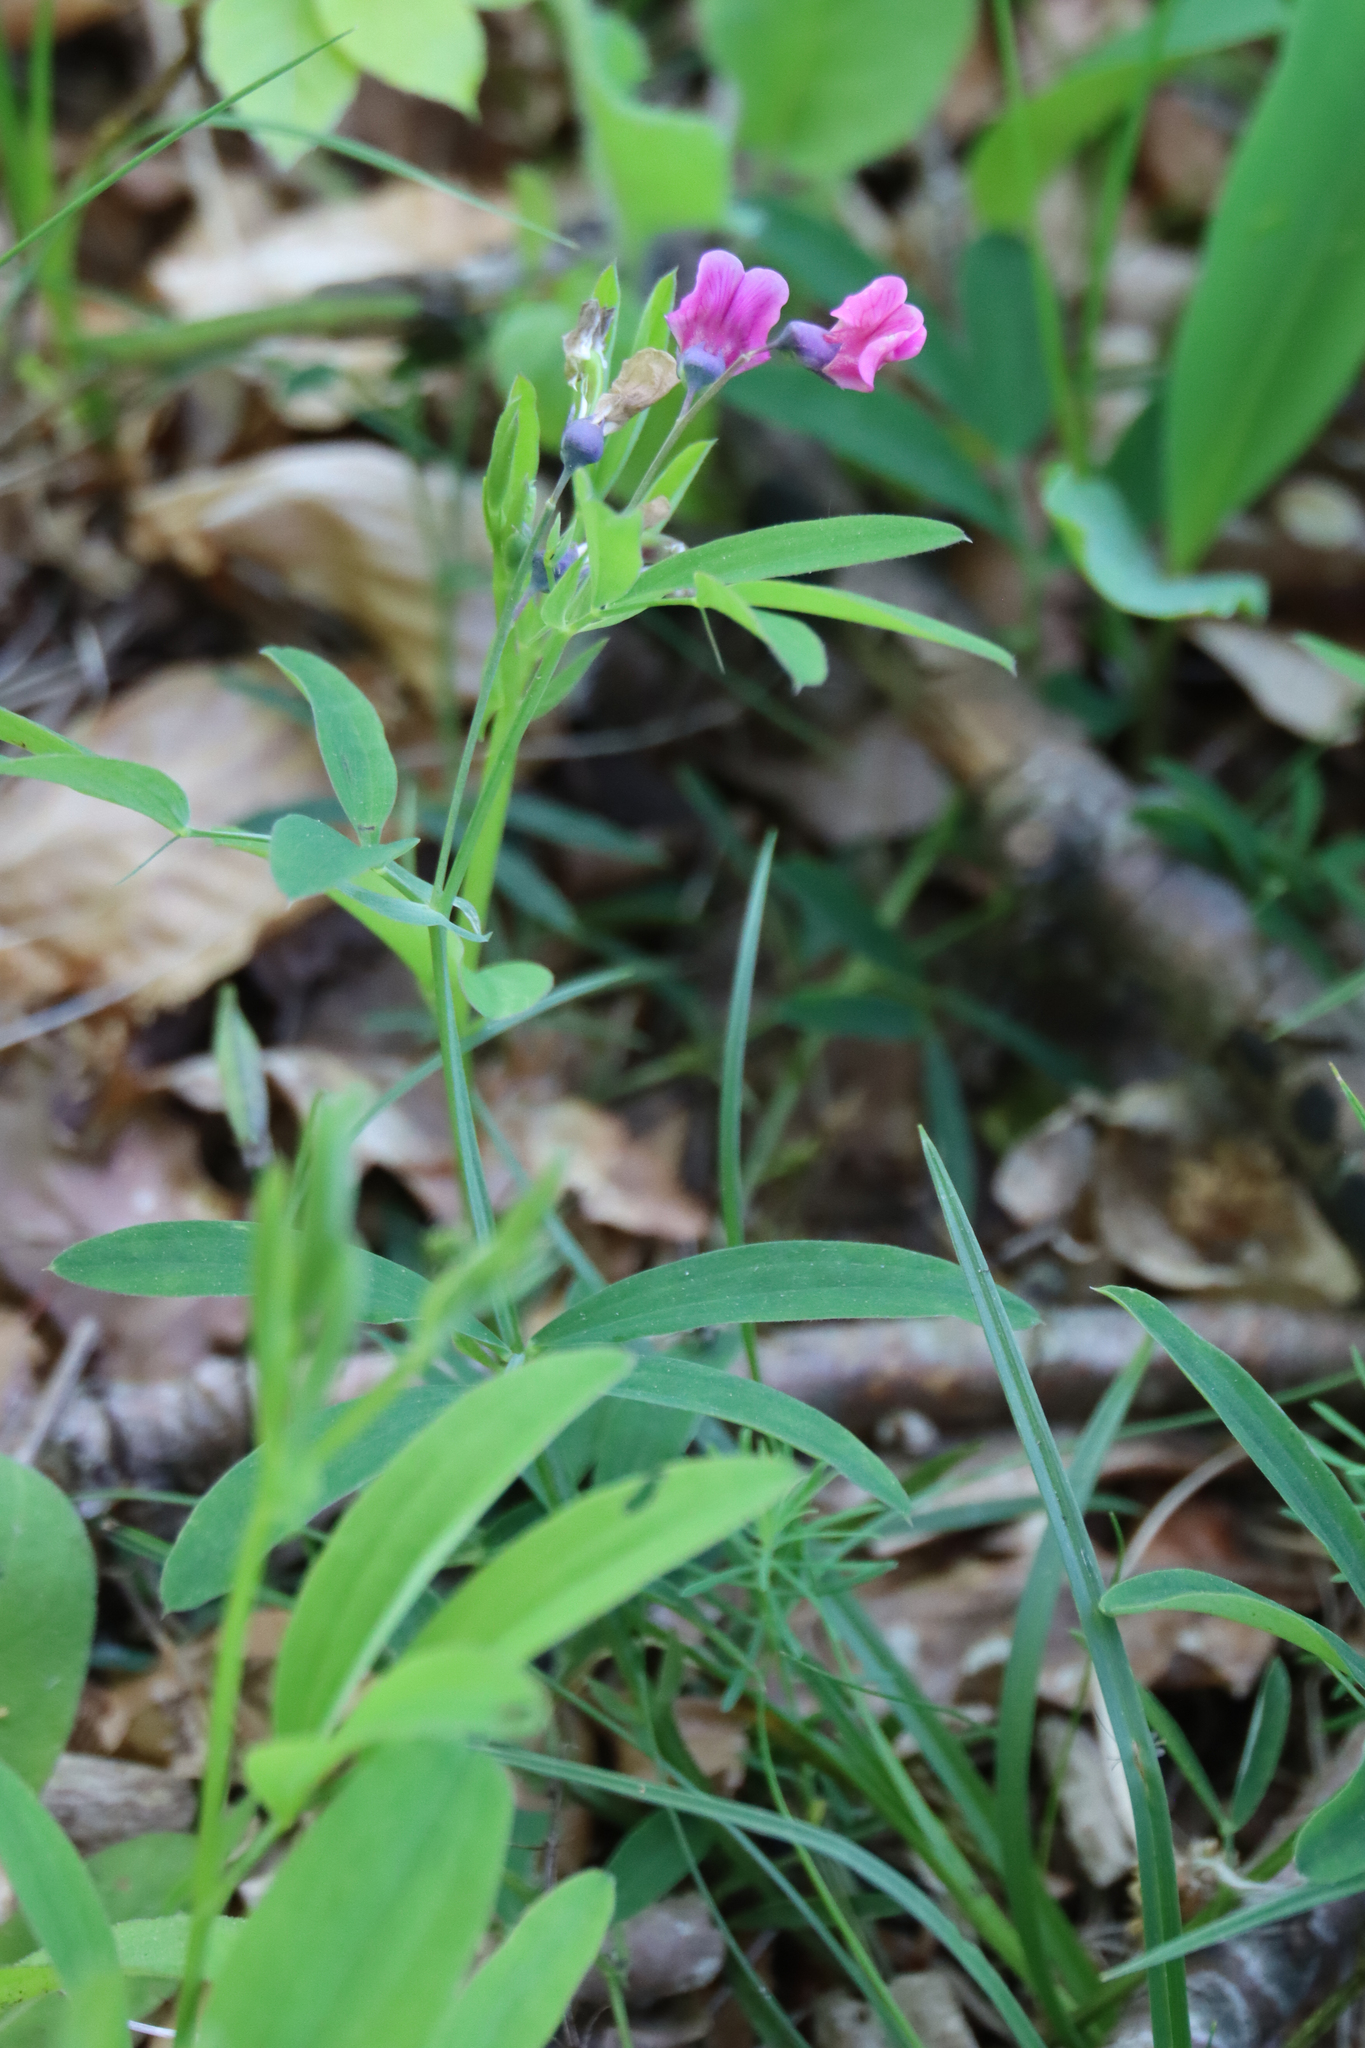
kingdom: Plantae
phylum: Tracheophyta
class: Magnoliopsida
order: Fabales
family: Fabaceae
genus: Lathyrus
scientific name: Lathyrus linifolius
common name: Bitter-vetch
